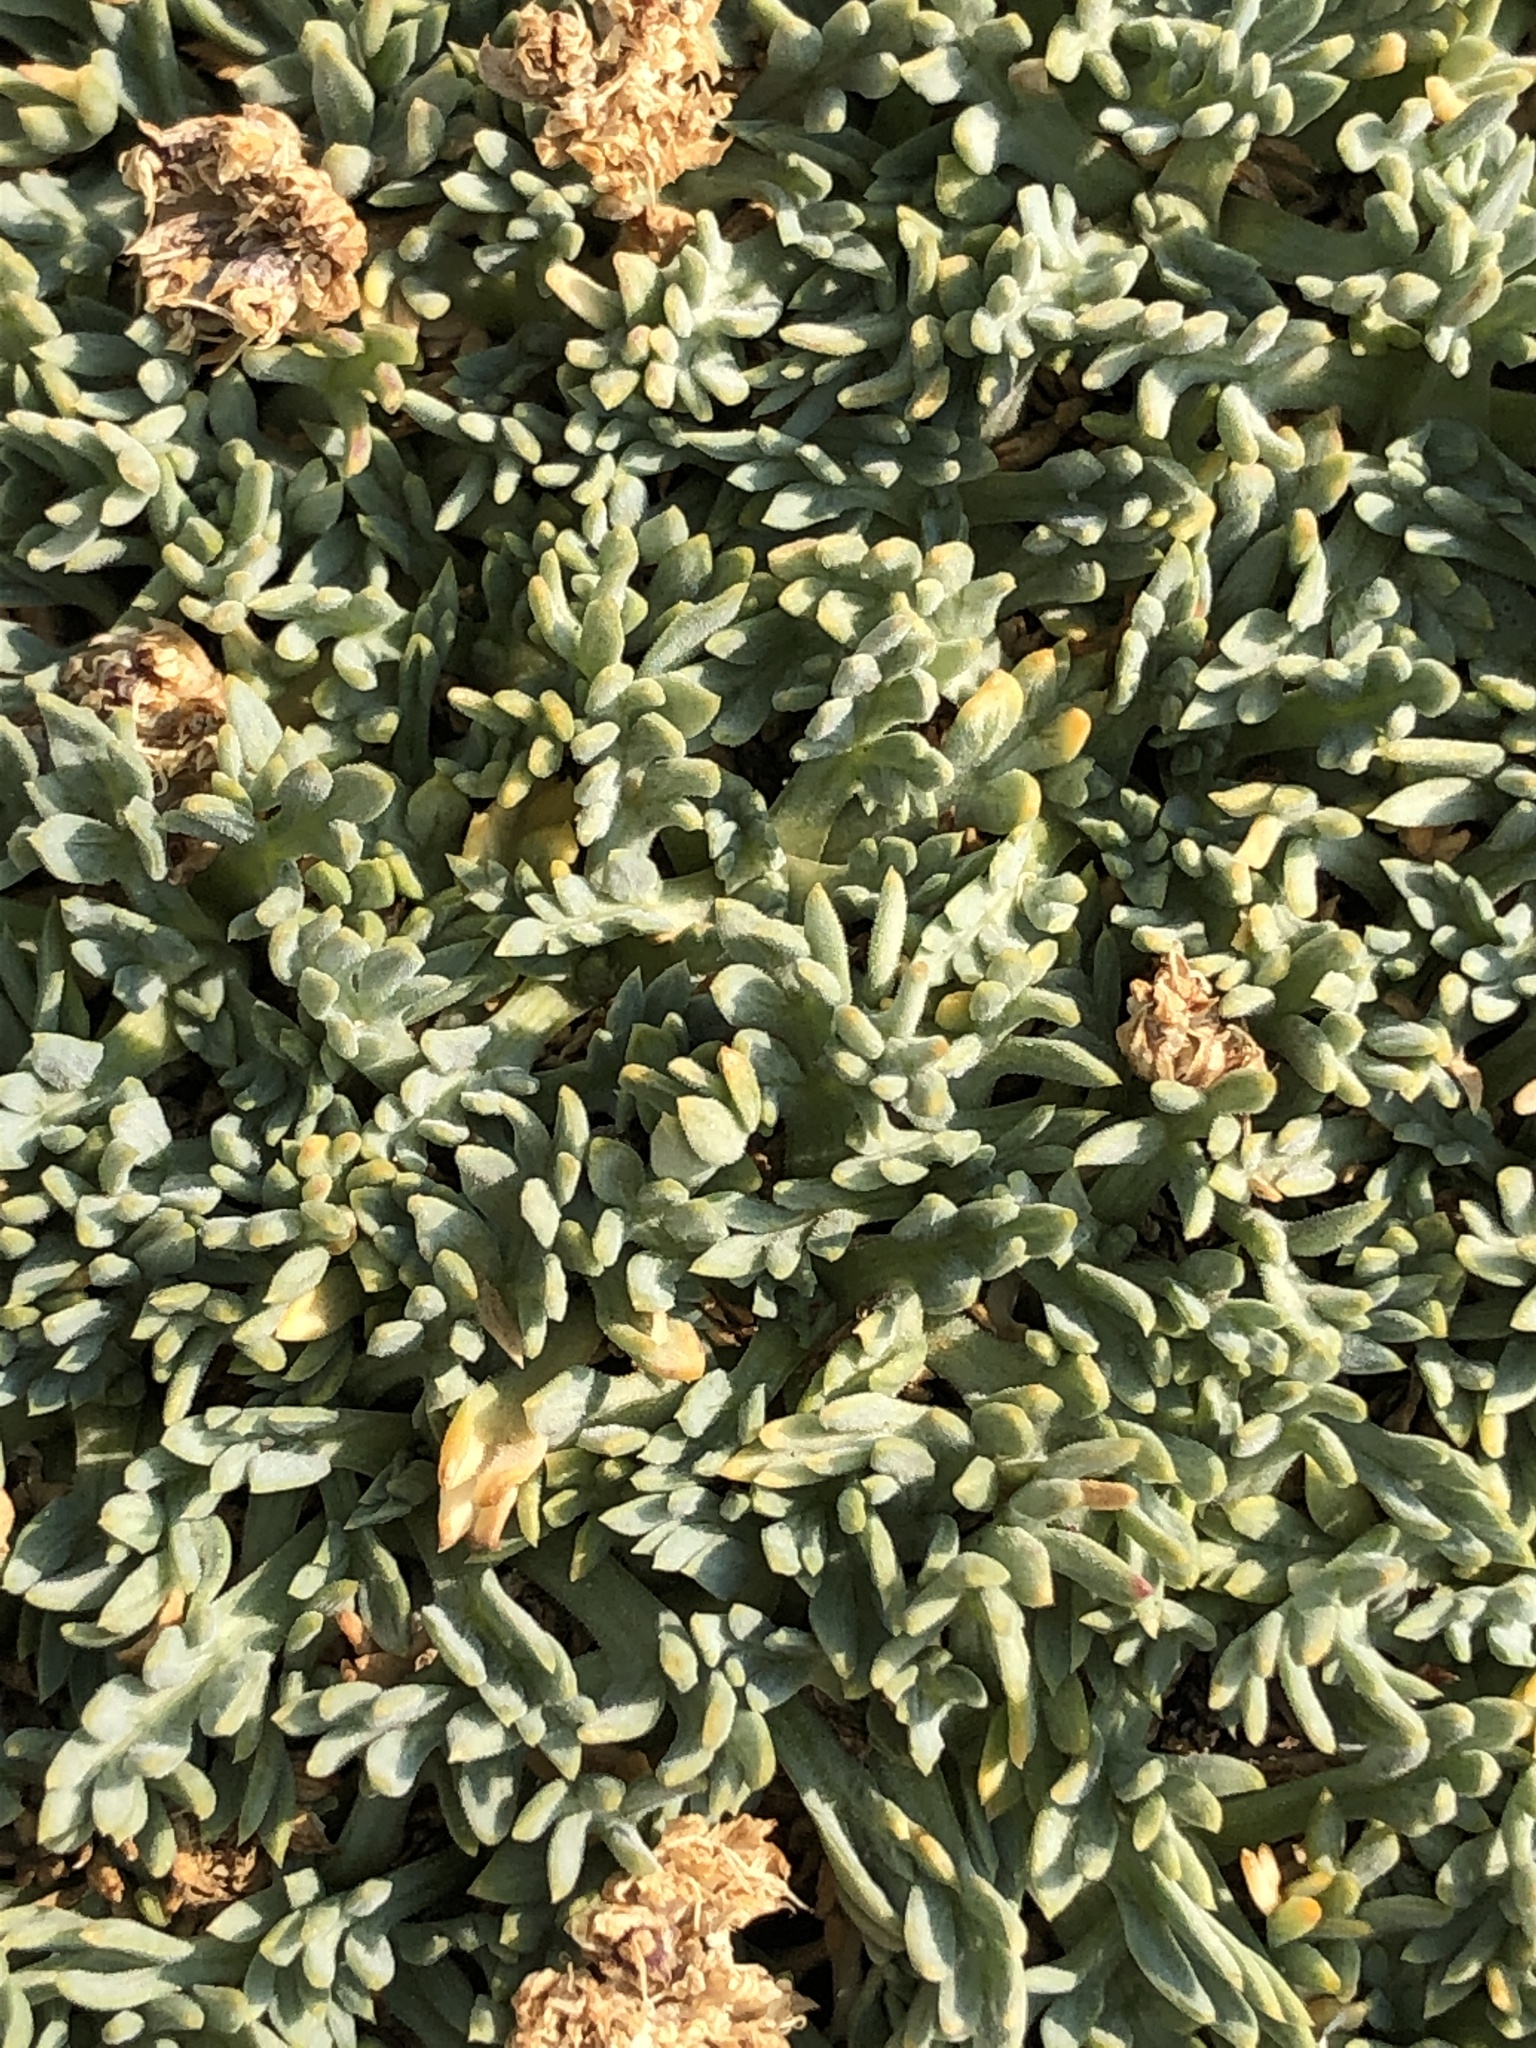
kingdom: Plantae
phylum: Tracheophyta
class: Magnoliopsida
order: Apiales
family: Apiaceae
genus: Podistera
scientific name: Podistera nevadensis
